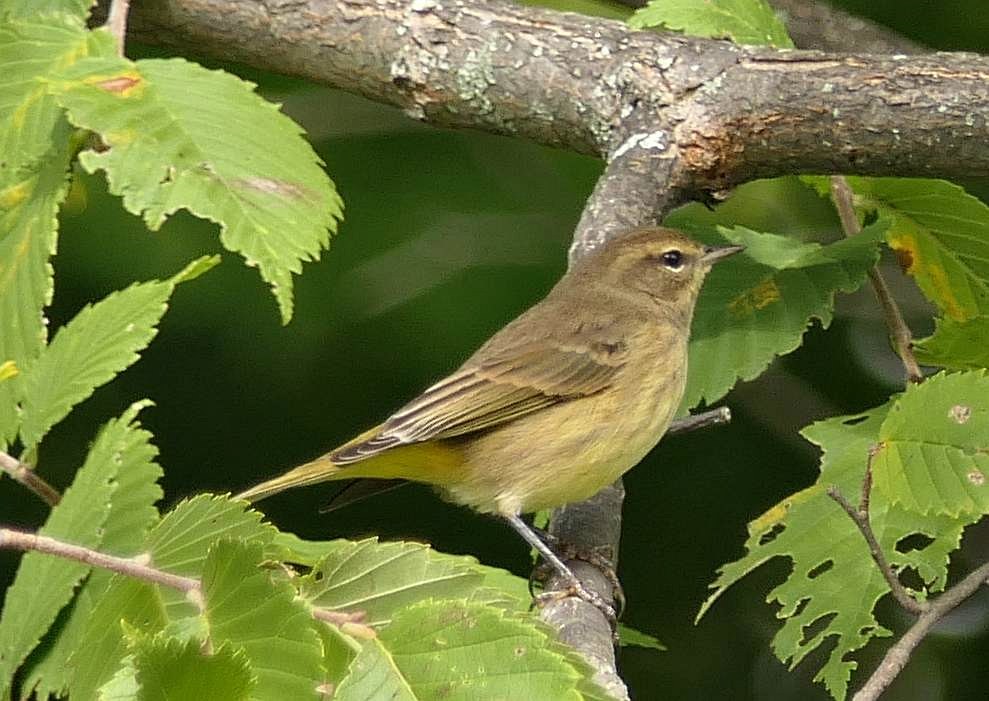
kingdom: Animalia
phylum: Chordata
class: Aves
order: Passeriformes
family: Parulidae
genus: Setophaga
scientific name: Setophaga palmarum
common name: Palm warbler
